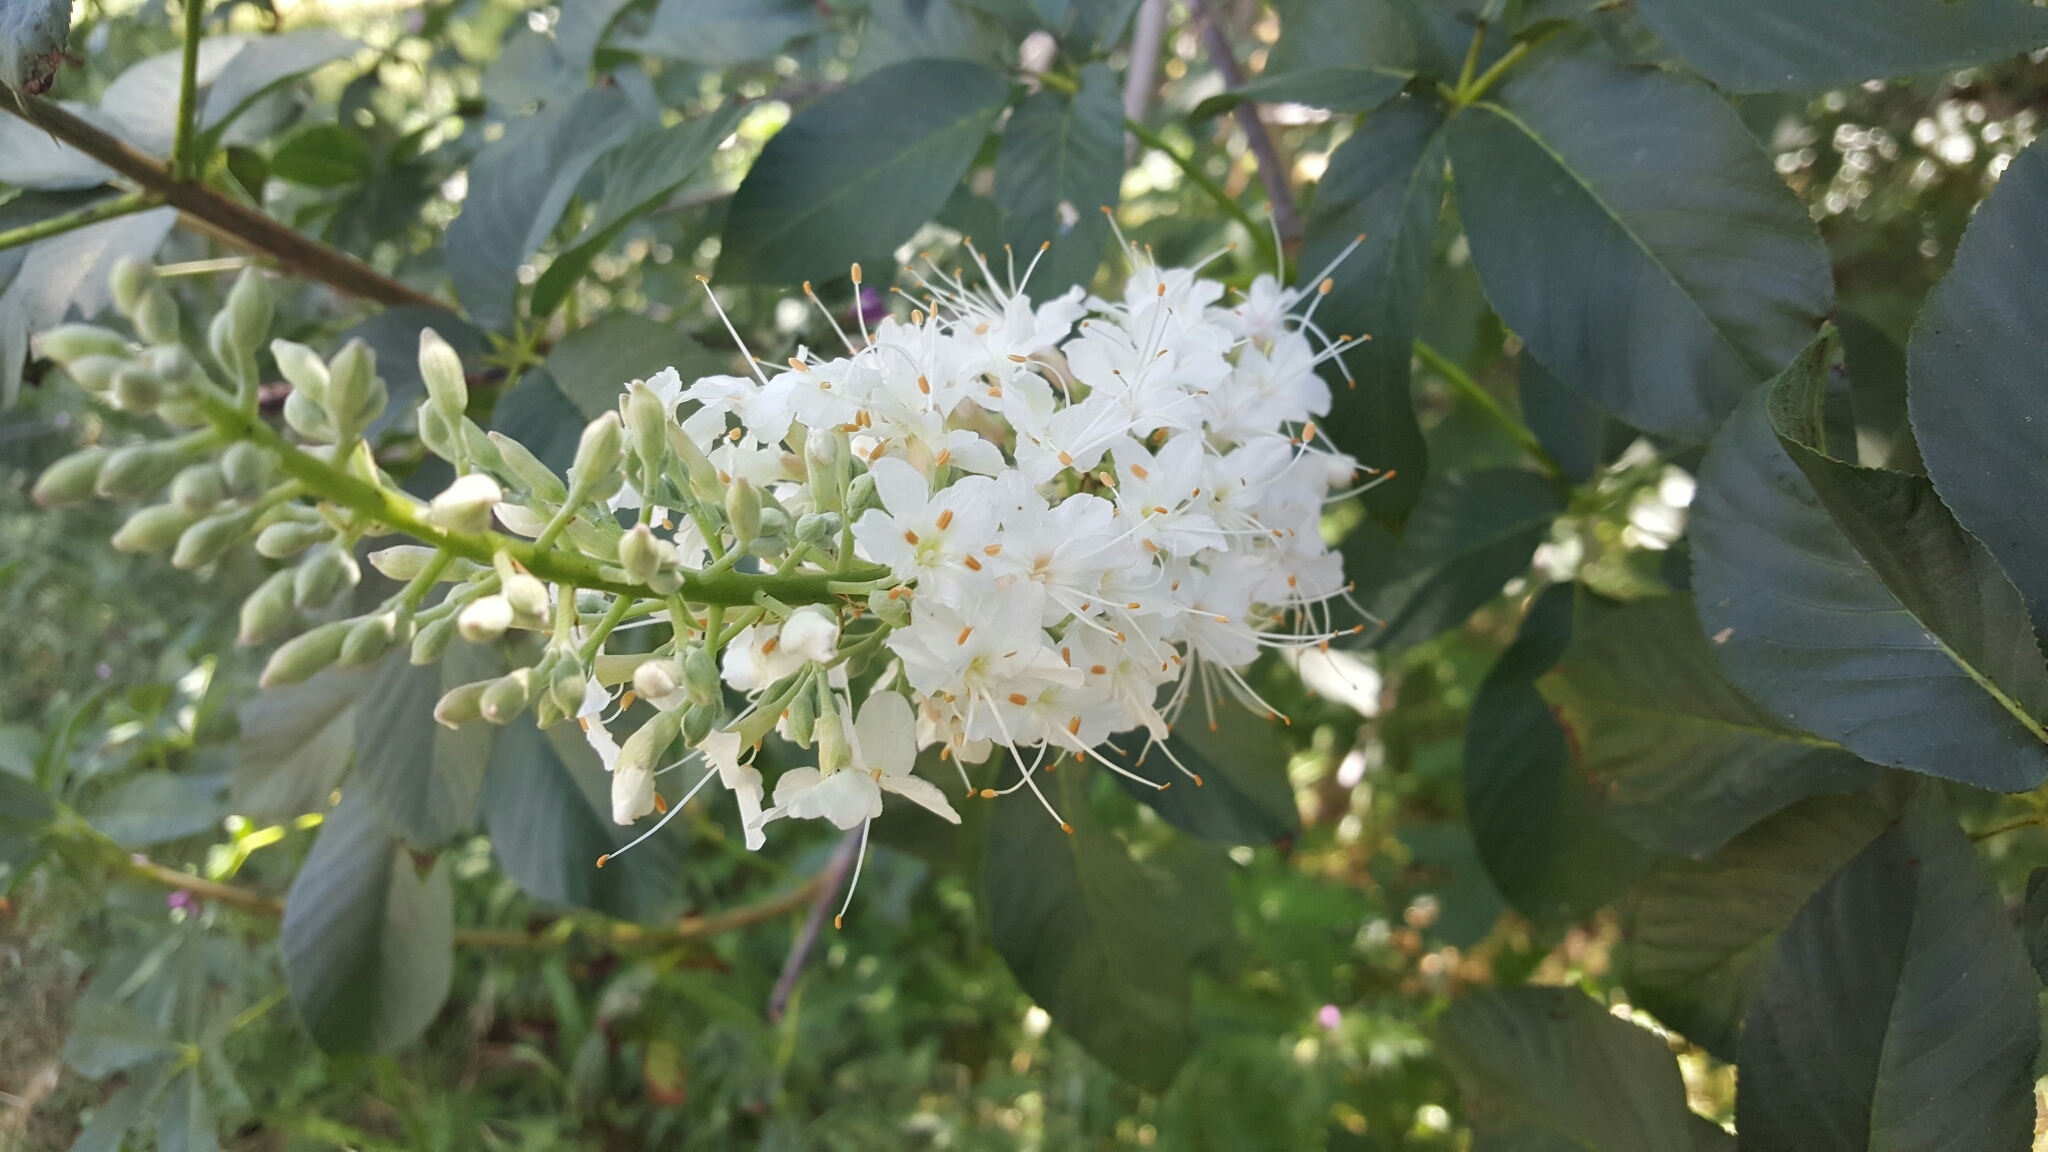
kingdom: Plantae
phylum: Tracheophyta
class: Magnoliopsida
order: Sapindales
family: Sapindaceae
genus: Aesculus
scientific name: Aesculus californica
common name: California buckeye
